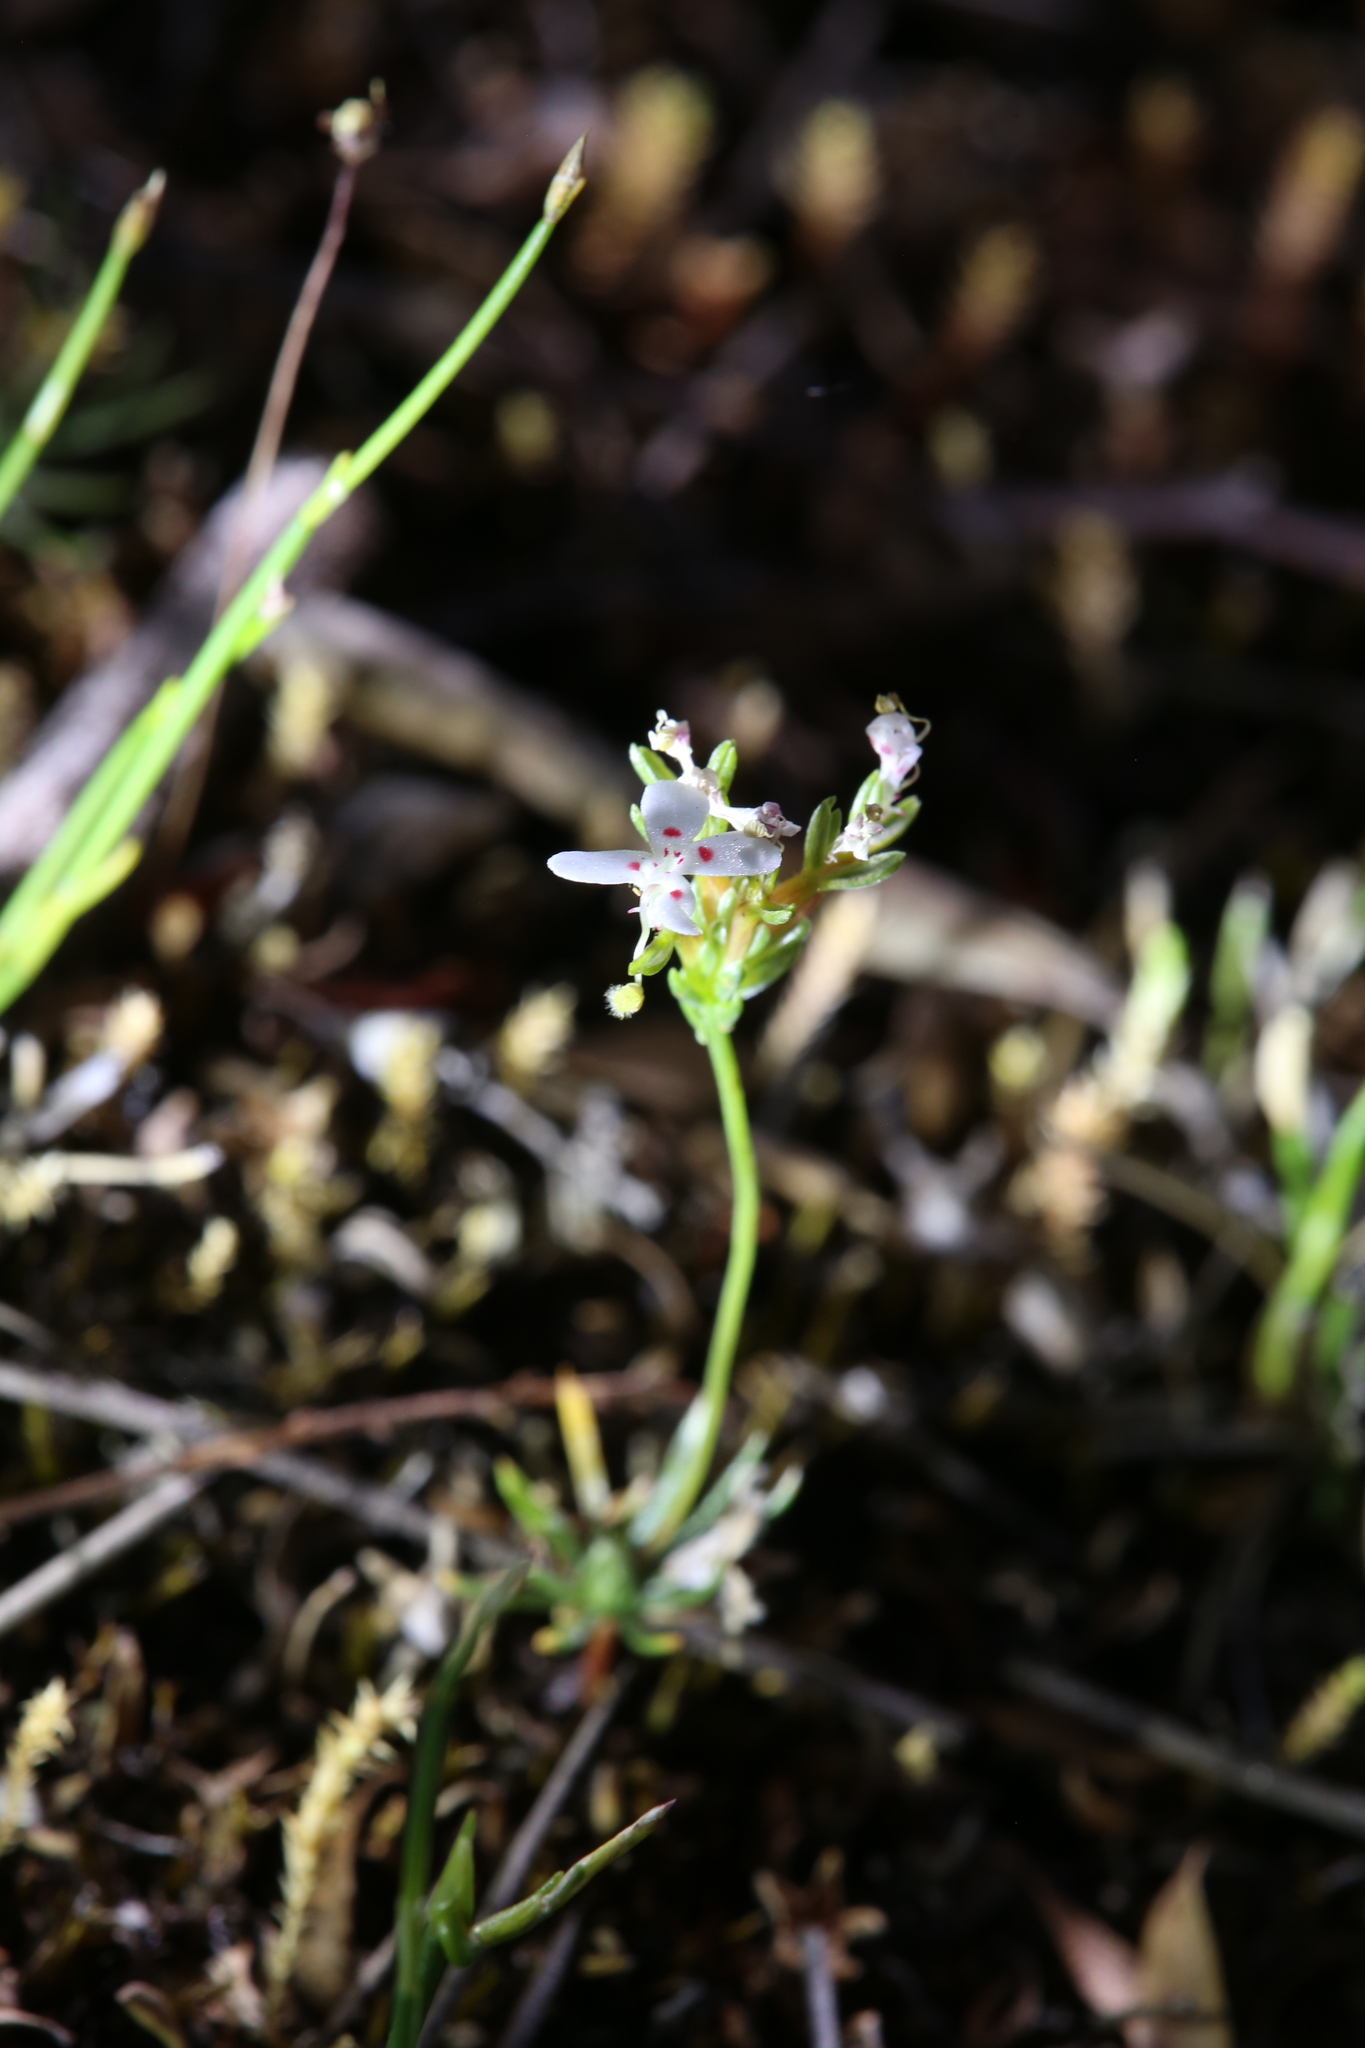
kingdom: Plantae
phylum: Tracheophyta
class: Magnoliopsida
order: Asterales
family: Stylidiaceae
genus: Stylidium
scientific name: Stylidium guttatum
